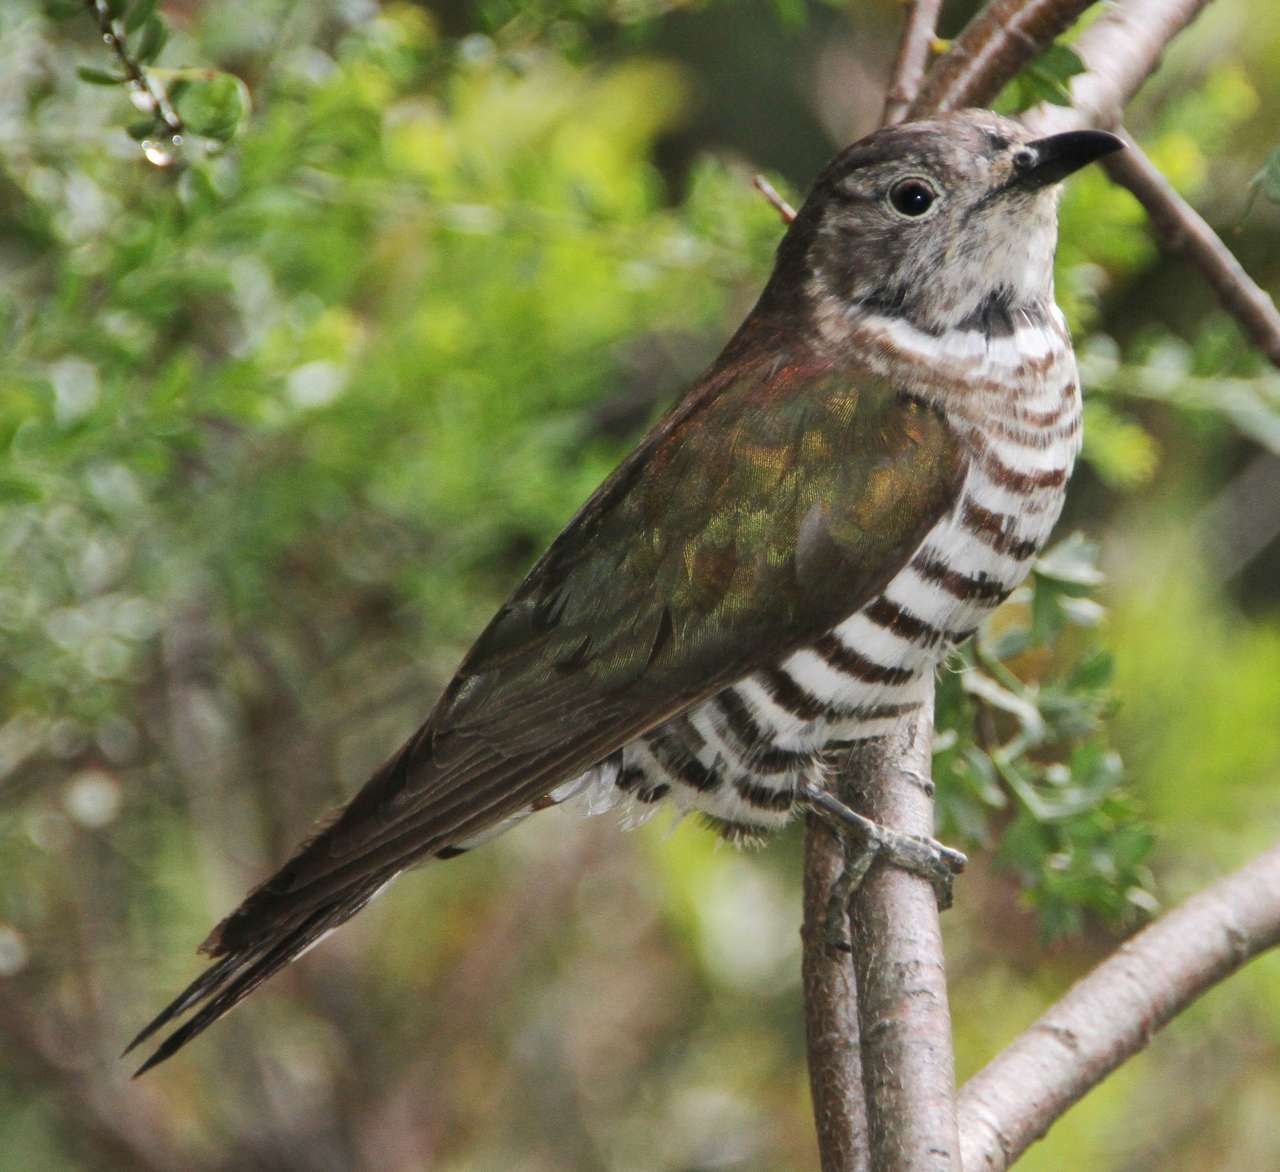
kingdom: Animalia
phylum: Chordata
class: Aves
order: Cuculiformes
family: Cuculidae
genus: Chrysococcyx
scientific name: Chrysococcyx lucidus
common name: Shining bronze cuckoo
